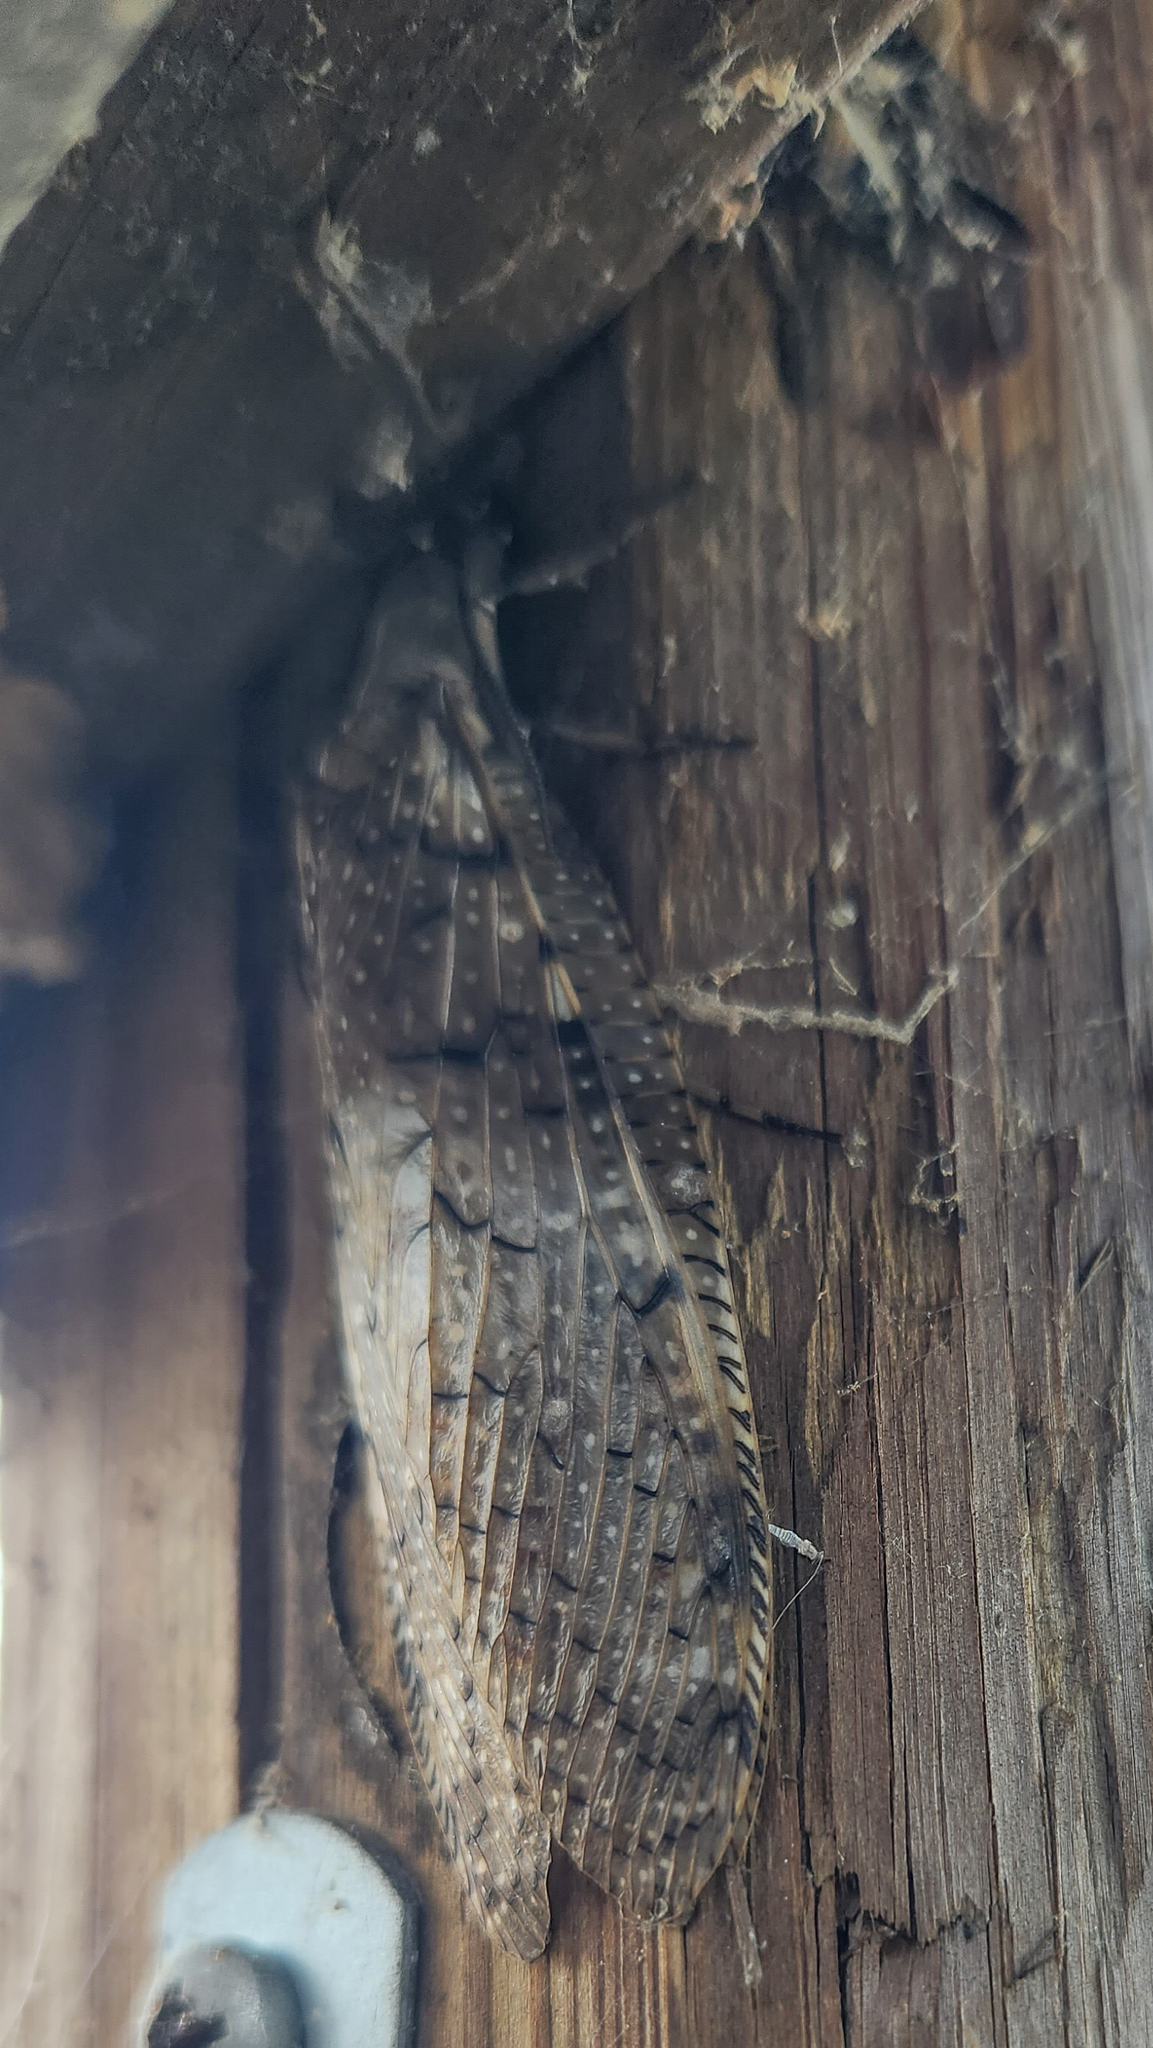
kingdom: Animalia
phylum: Arthropoda
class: Insecta
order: Megaloptera
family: Corydalidae
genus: Corydalus
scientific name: Corydalus cornutus
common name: Dobsonfly
